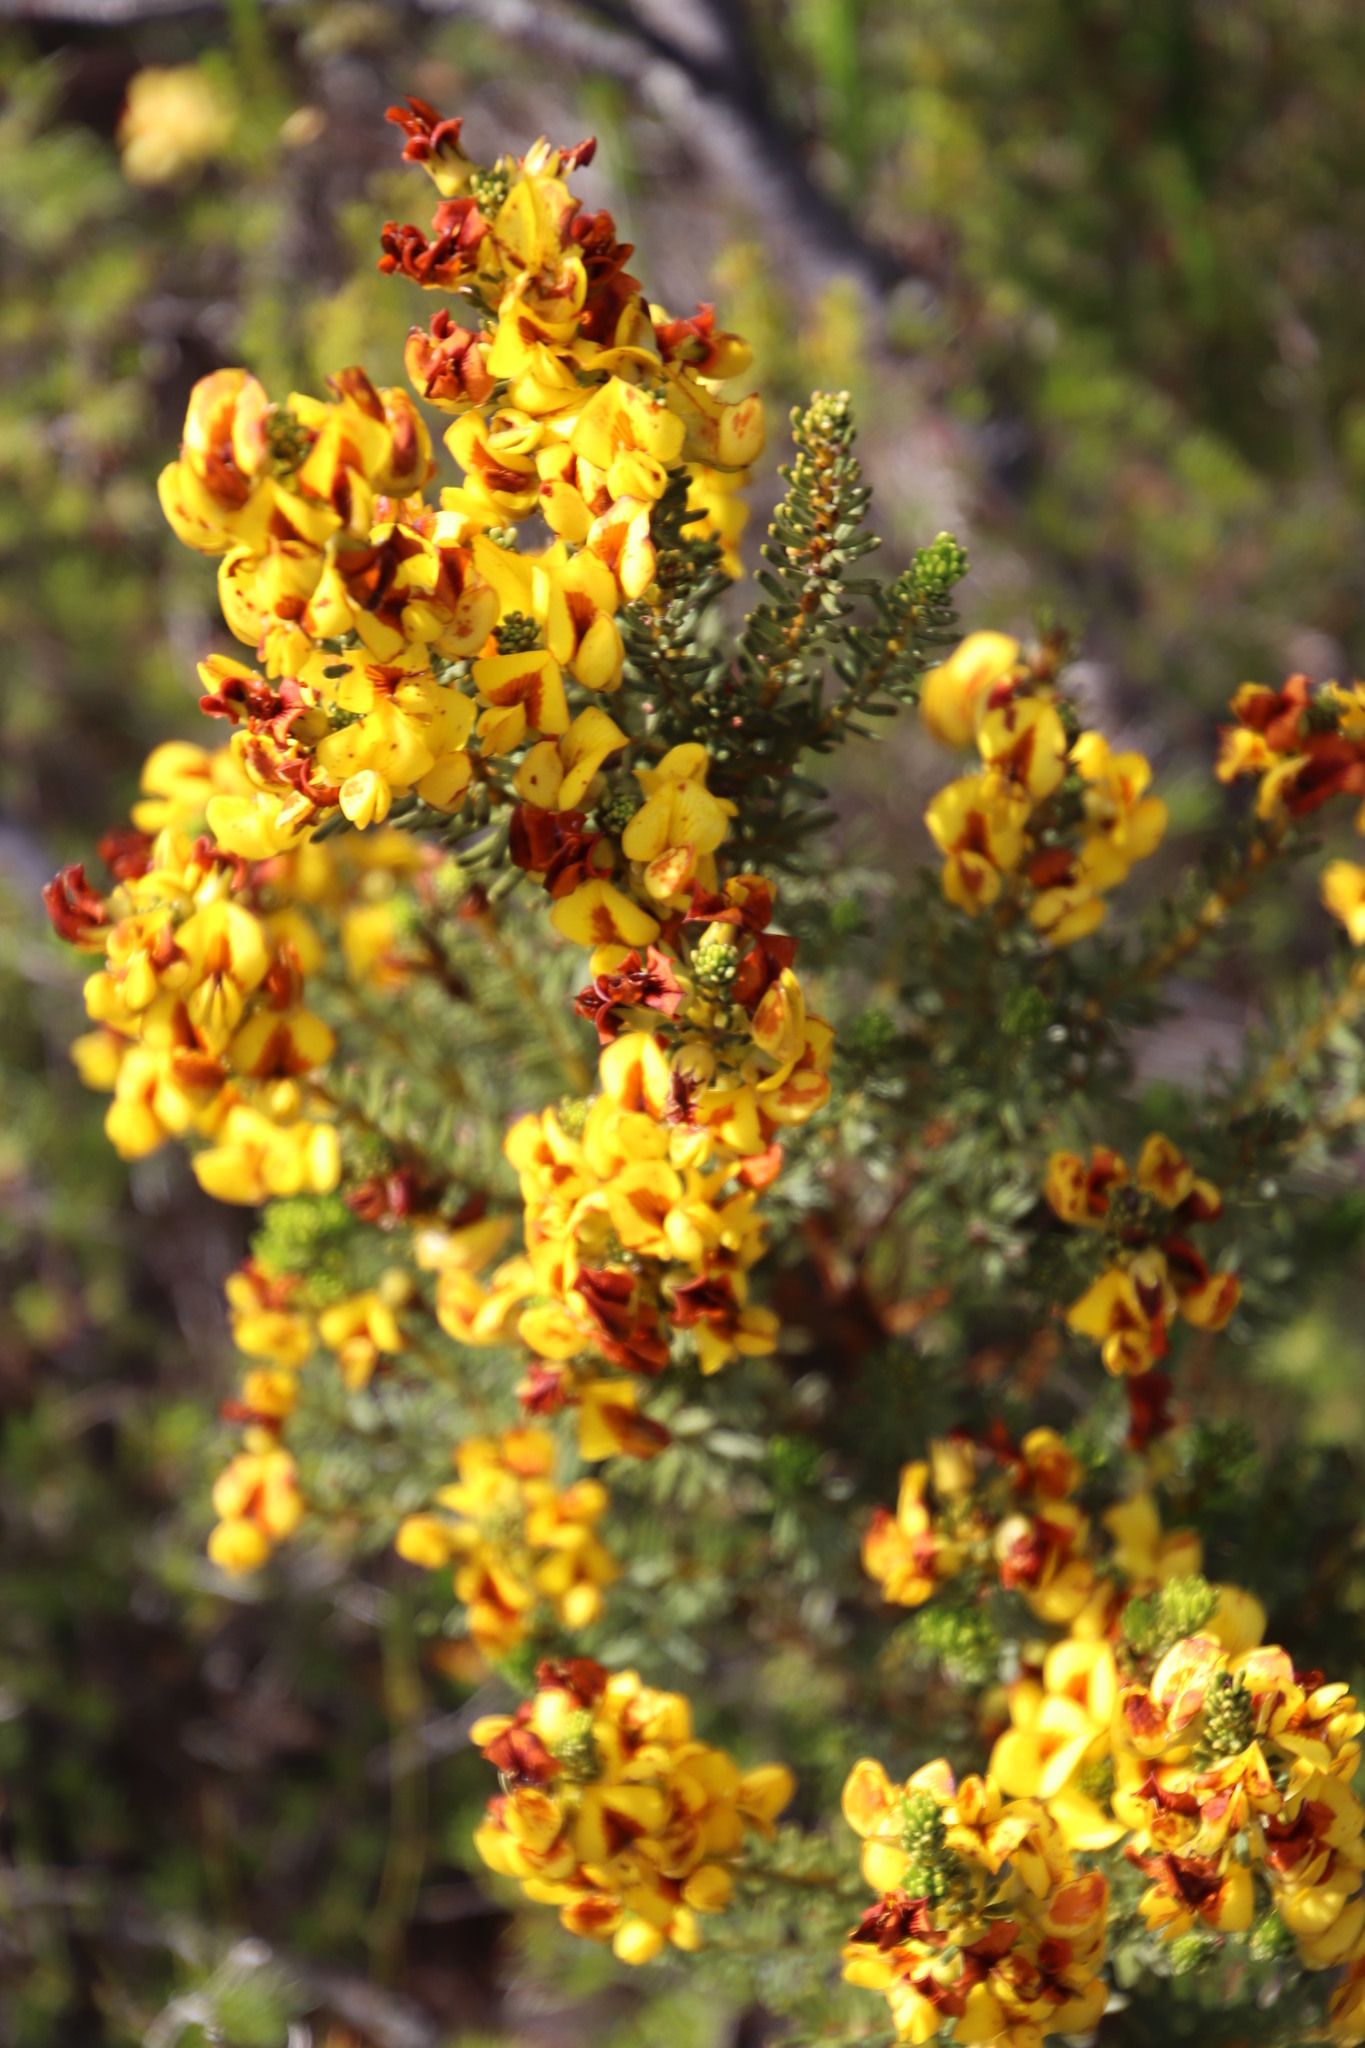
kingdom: Plantae
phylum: Tracheophyta
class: Magnoliopsida
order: Fabales
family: Fabaceae
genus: Cyclopia
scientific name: Cyclopia genistoides
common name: Honeybush tea
